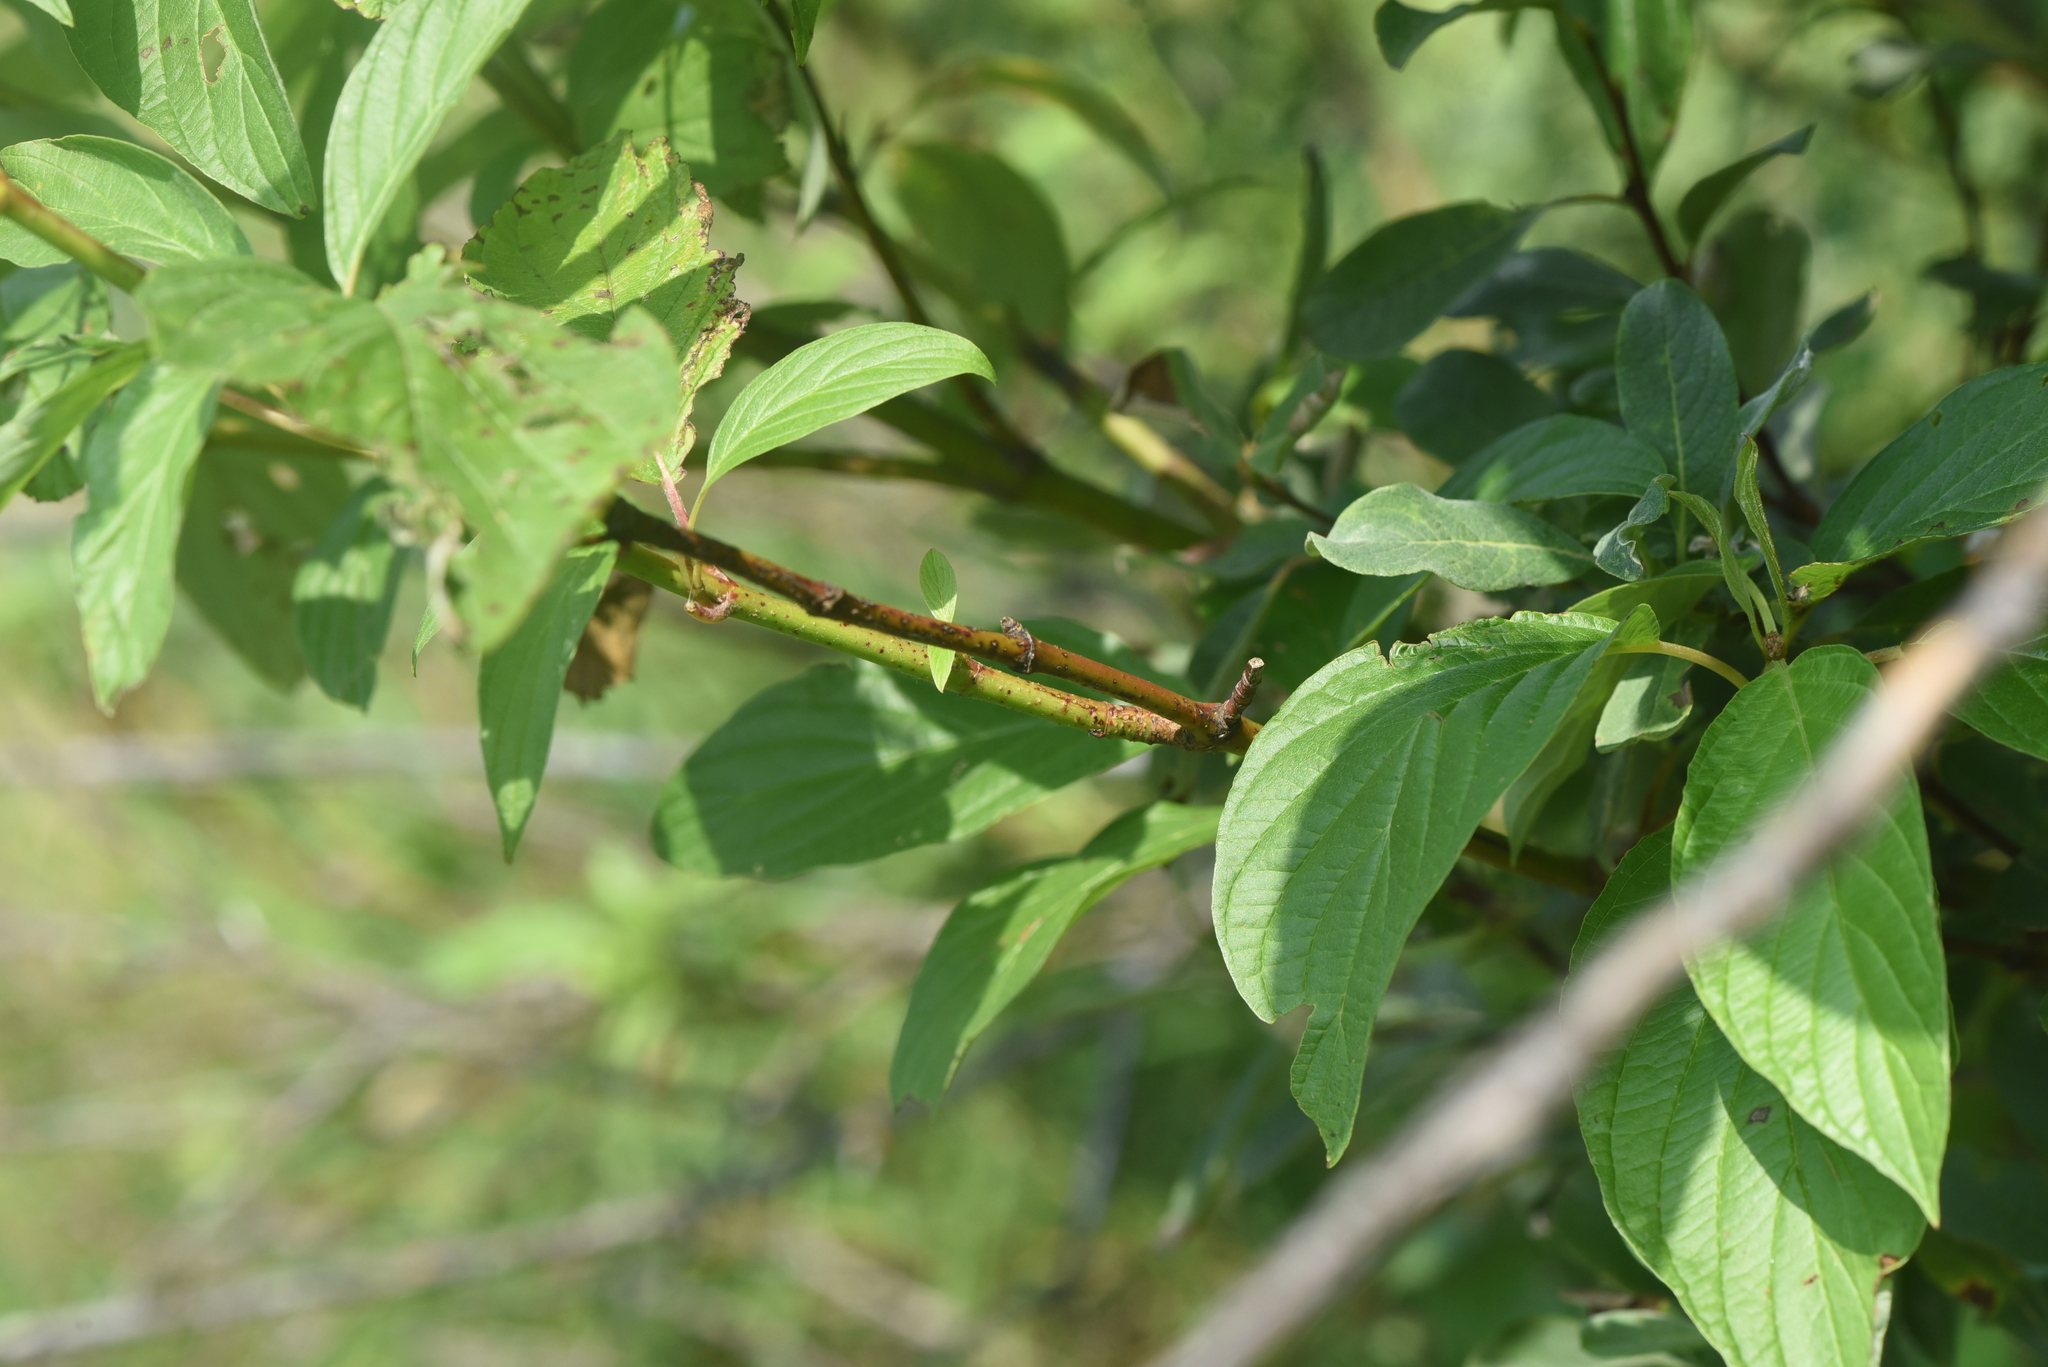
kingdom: Plantae
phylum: Tracheophyta
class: Magnoliopsida
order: Cornales
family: Cornaceae
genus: Cornus
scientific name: Cornus sericea
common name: Red-osier dogwood
